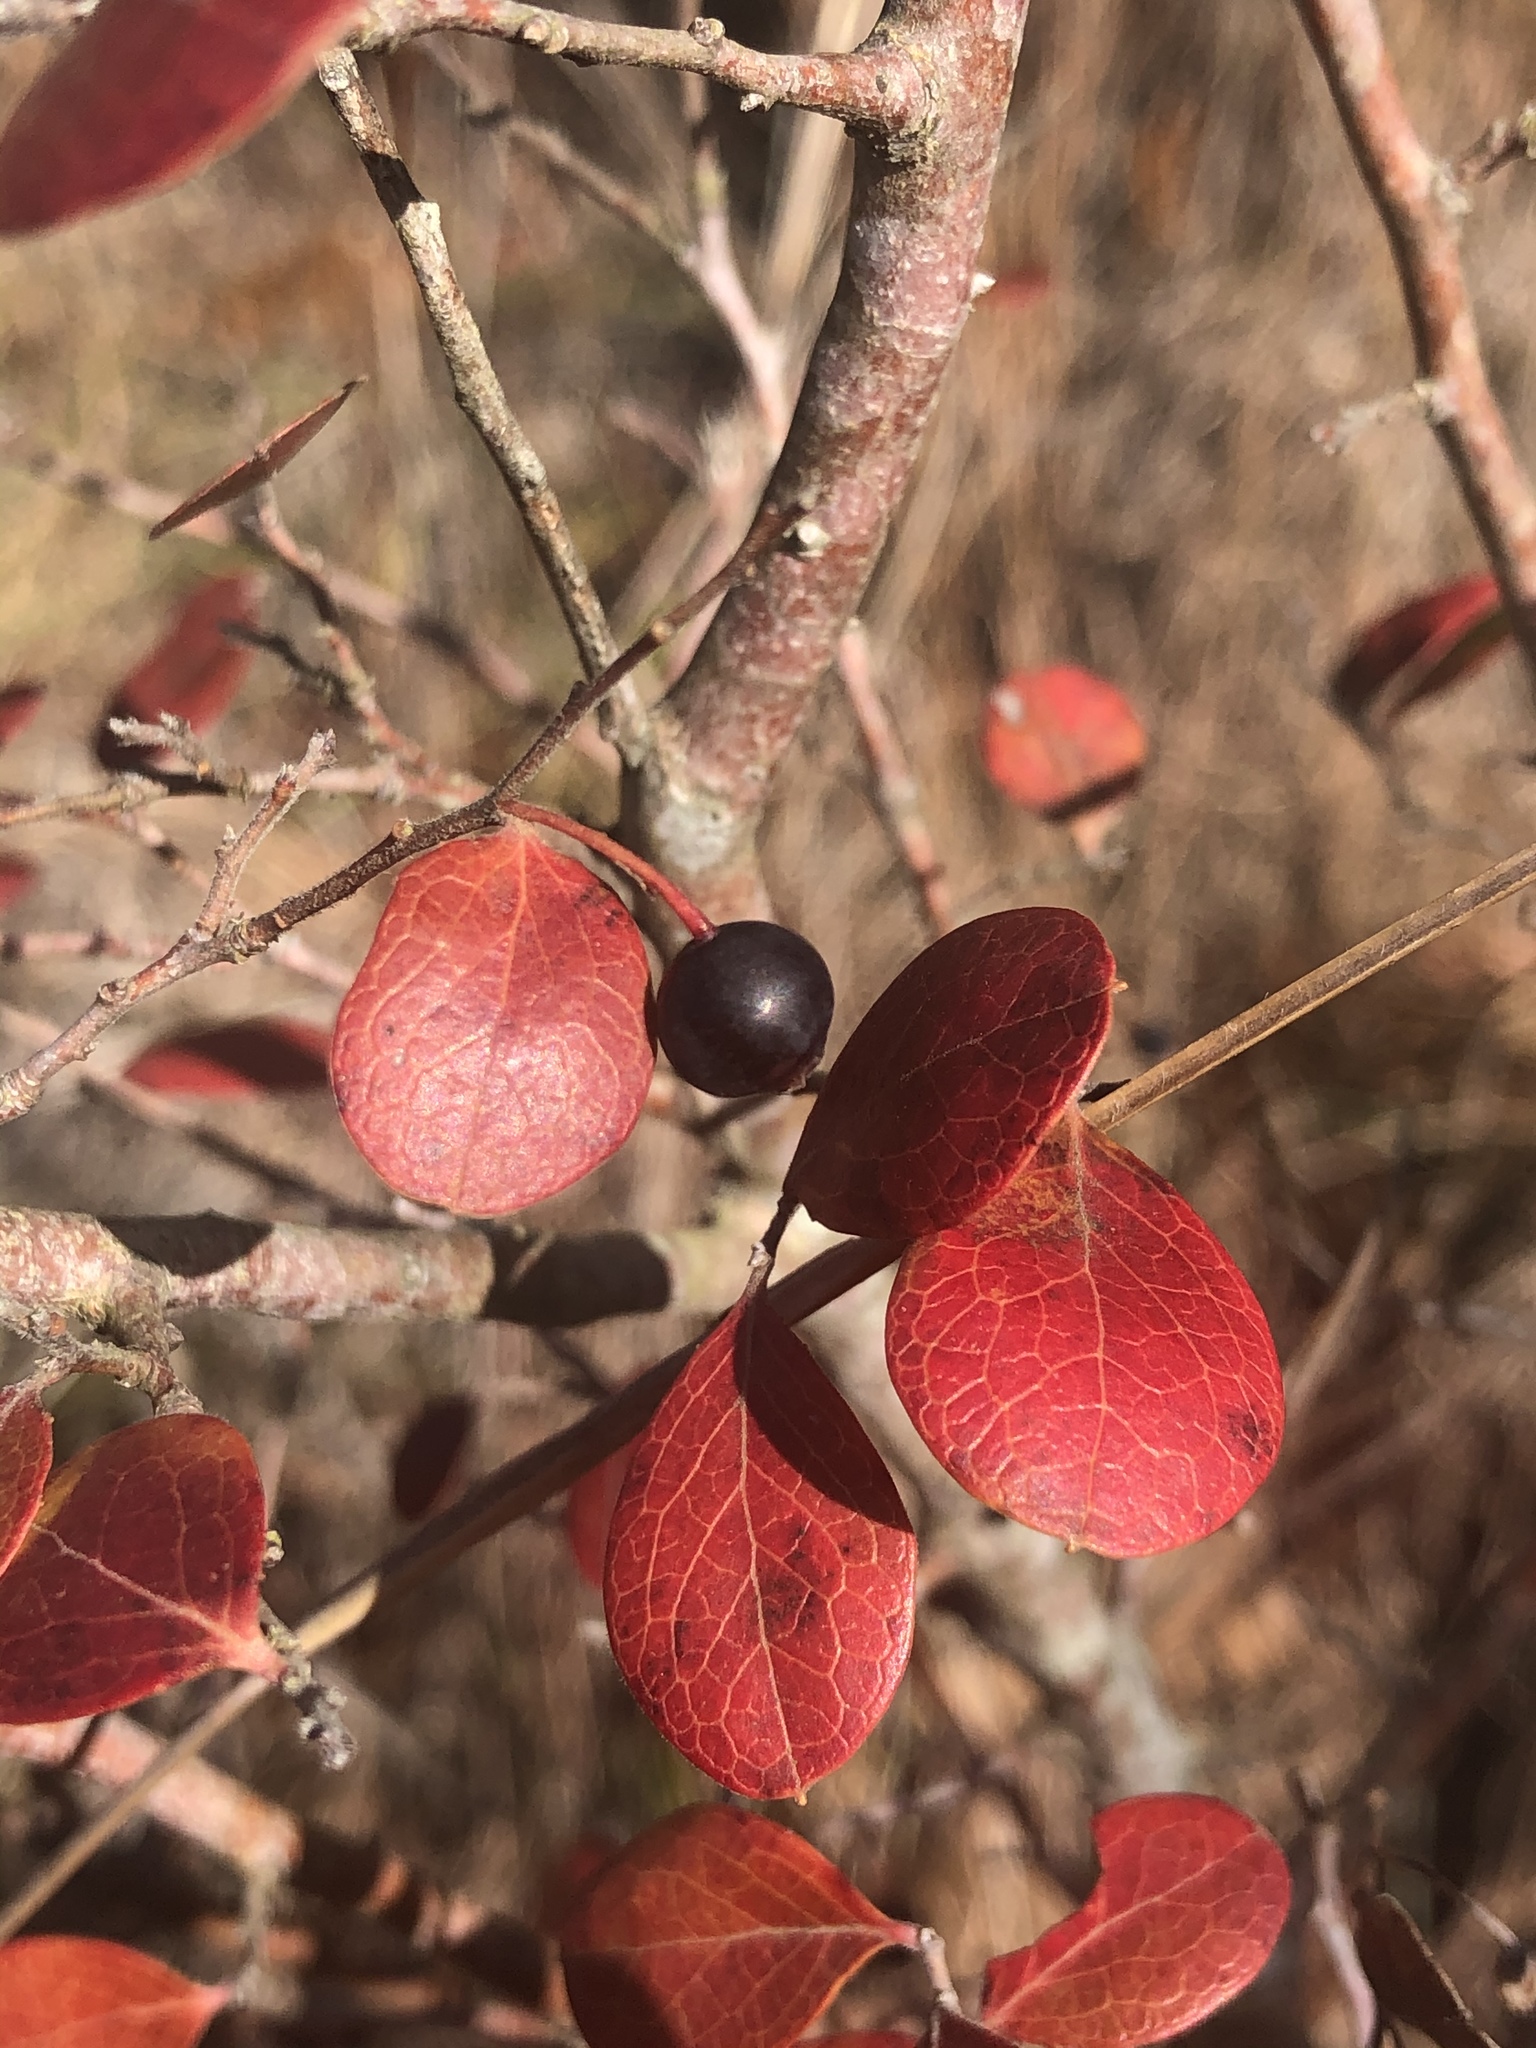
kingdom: Plantae
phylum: Tracheophyta
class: Magnoliopsida
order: Ericales
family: Ericaceae
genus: Vaccinium
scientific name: Vaccinium arboreum
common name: Farkleberry
